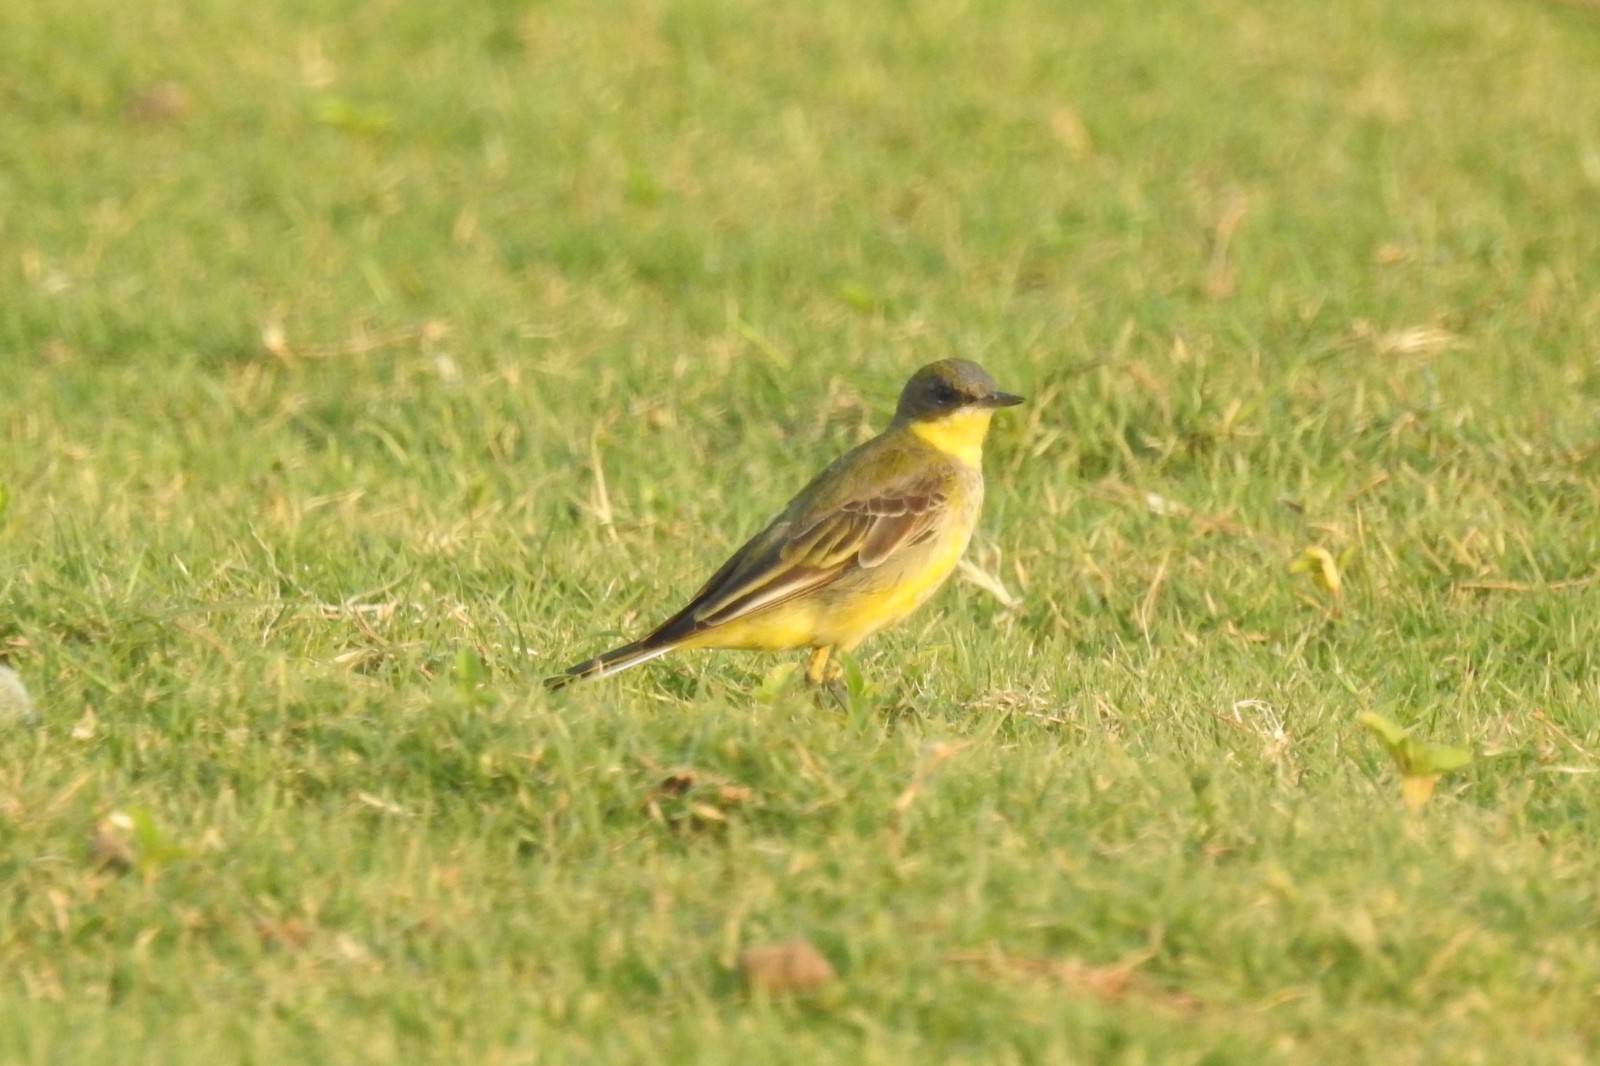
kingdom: Animalia
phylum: Chordata
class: Aves
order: Passeriformes
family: Motacillidae
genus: Motacilla
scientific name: Motacilla flava
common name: Western yellow wagtail
